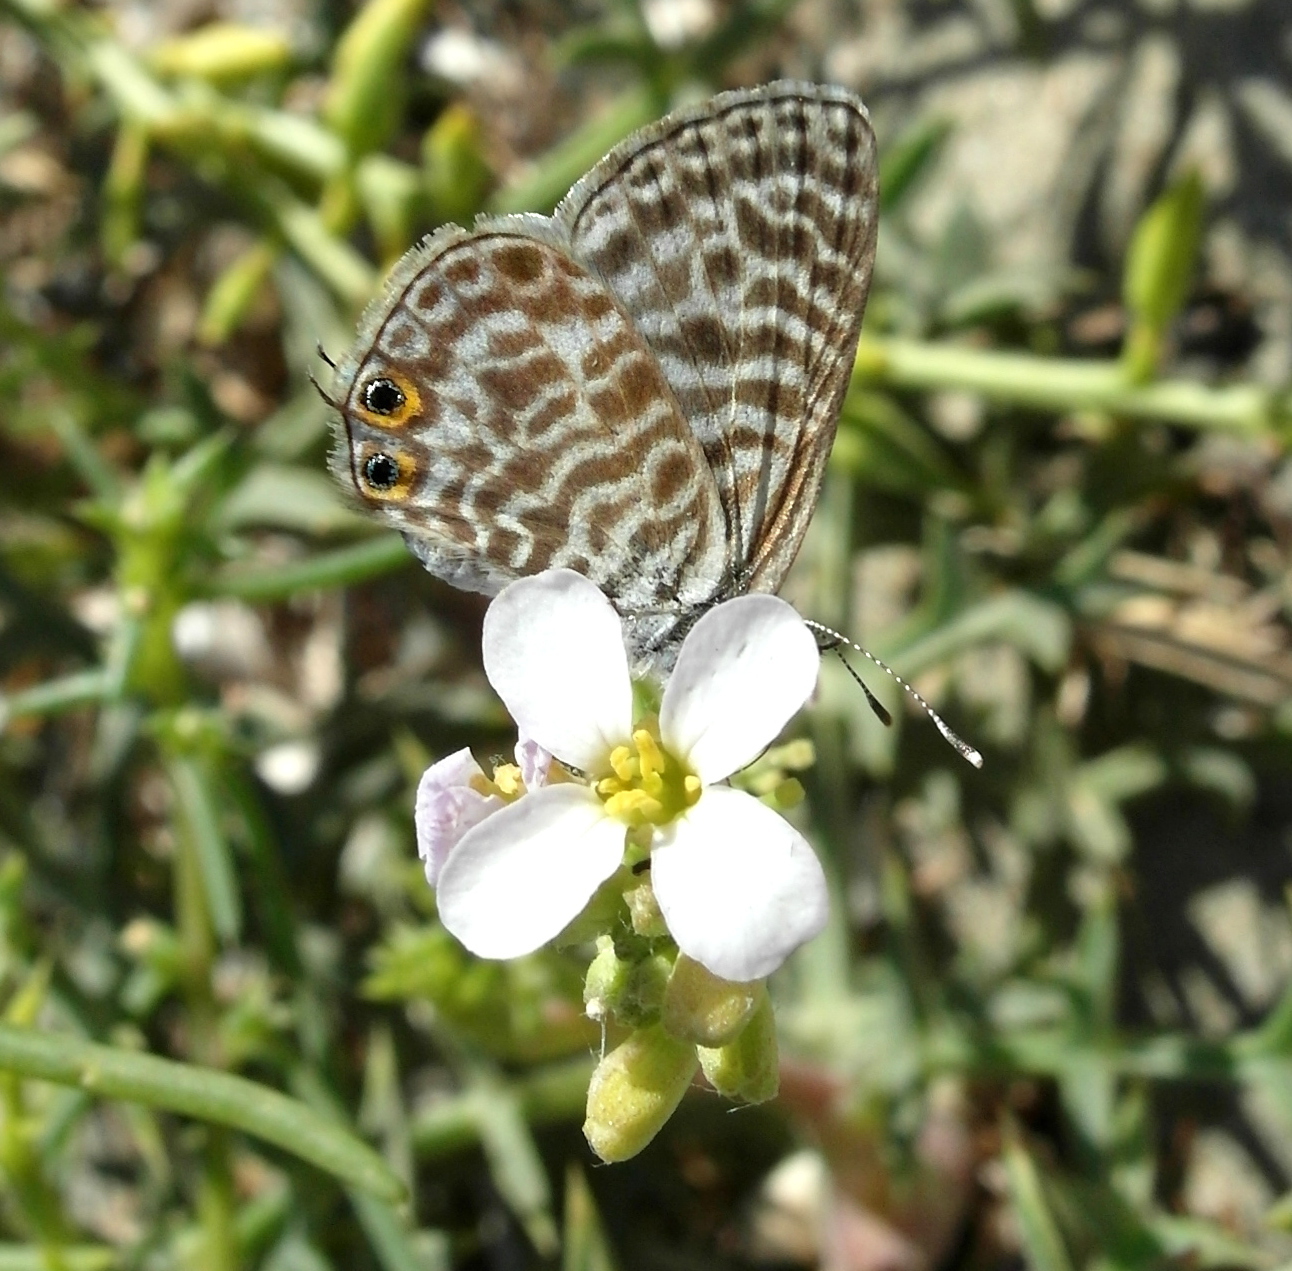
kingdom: Animalia
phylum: Arthropoda
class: Insecta
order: Lepidoptera
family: Lycaenidae
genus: Leptotes
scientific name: Leptotes pirithous
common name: Lang's short-tailed blue
